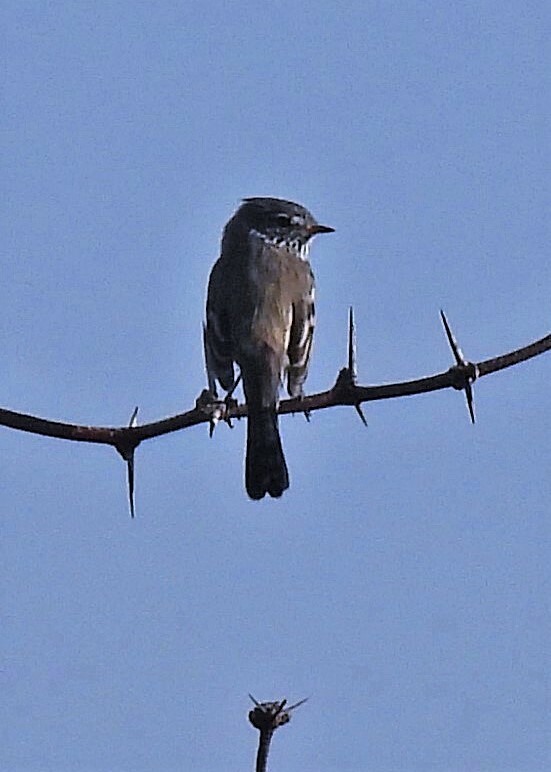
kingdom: Animalia
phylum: Chordata
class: Aves
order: Passeriformes
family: Tyrannidae
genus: Anairetes
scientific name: Anairetes flavirostris
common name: Yellow-billed tit-tyrant
